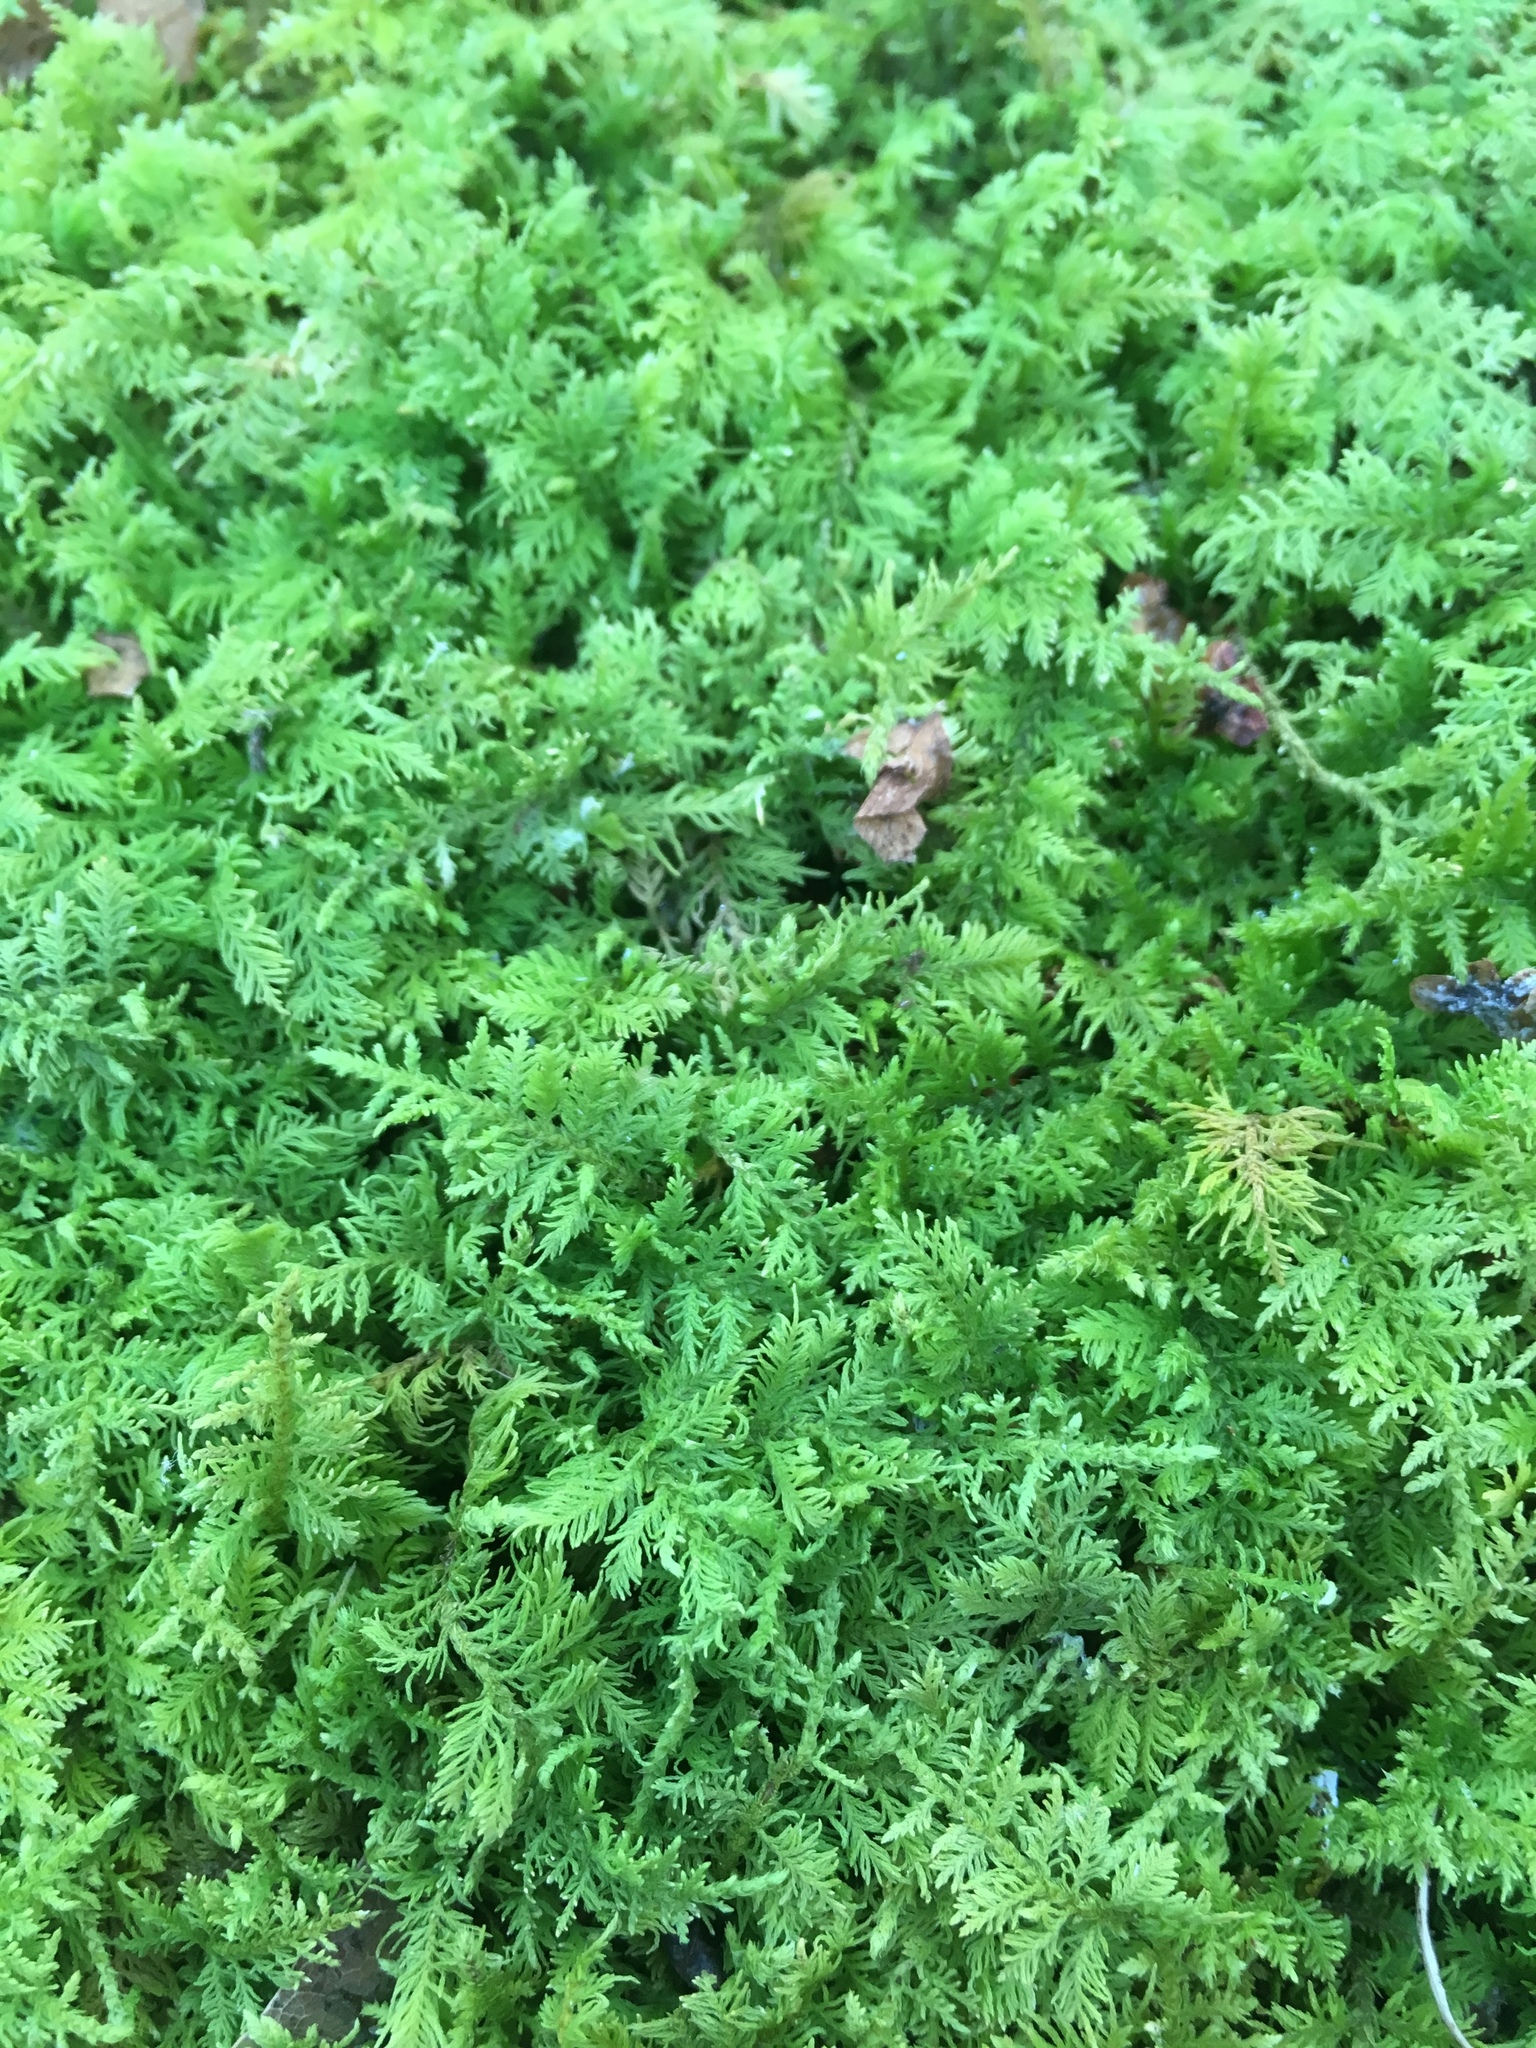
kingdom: Plantae
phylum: Bryophyta
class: Bryopsida
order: Hypnales
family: Thuidiaceae
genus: Thuidium
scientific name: Thuidium delicatulum
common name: Delicate fern moss
